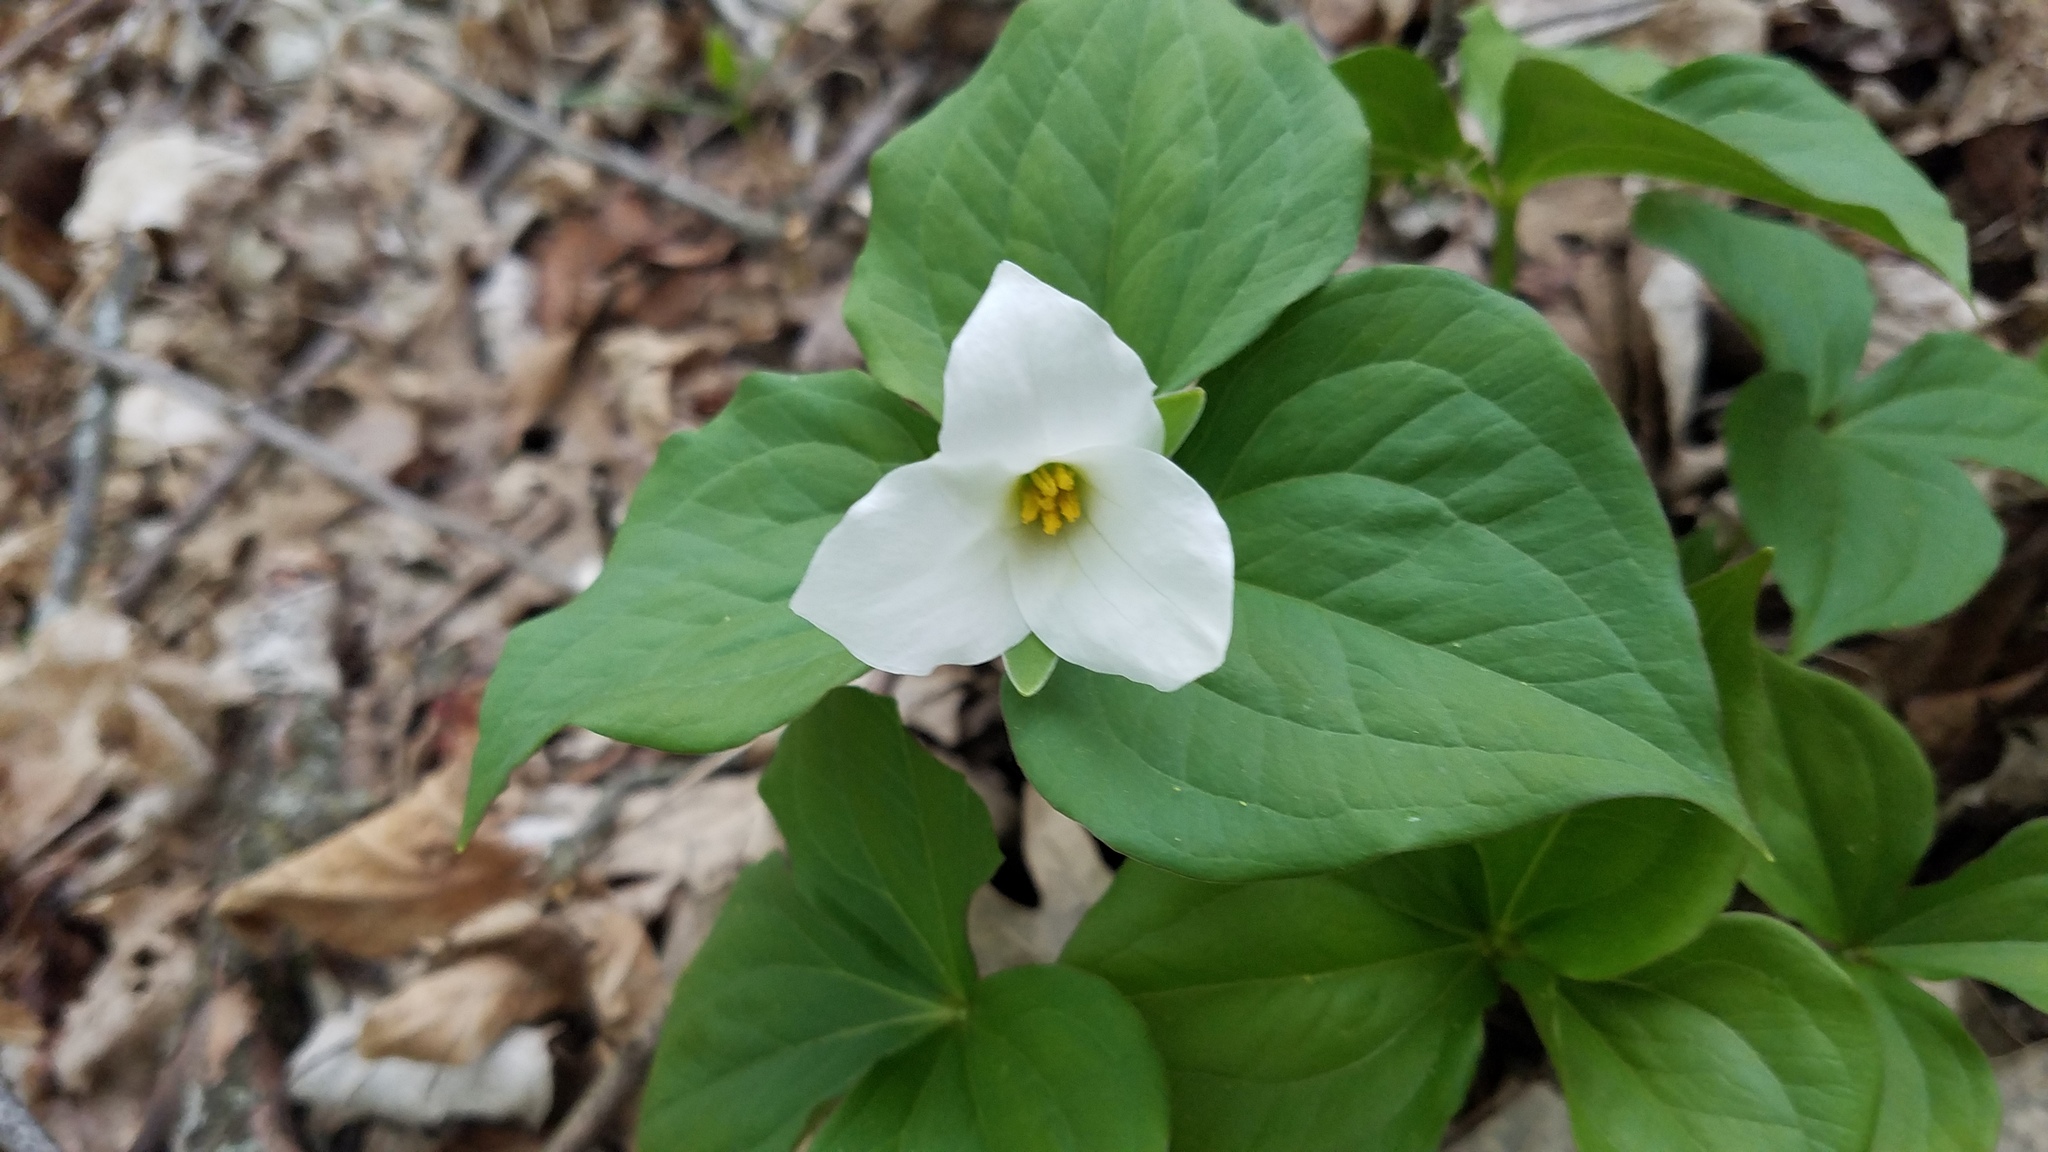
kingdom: Plantae
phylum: Tracheophyta
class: Liliopsida
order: Liliales
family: Melanthiaceae
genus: Trillium
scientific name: Trillium grandiflorum
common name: Great white trillium
